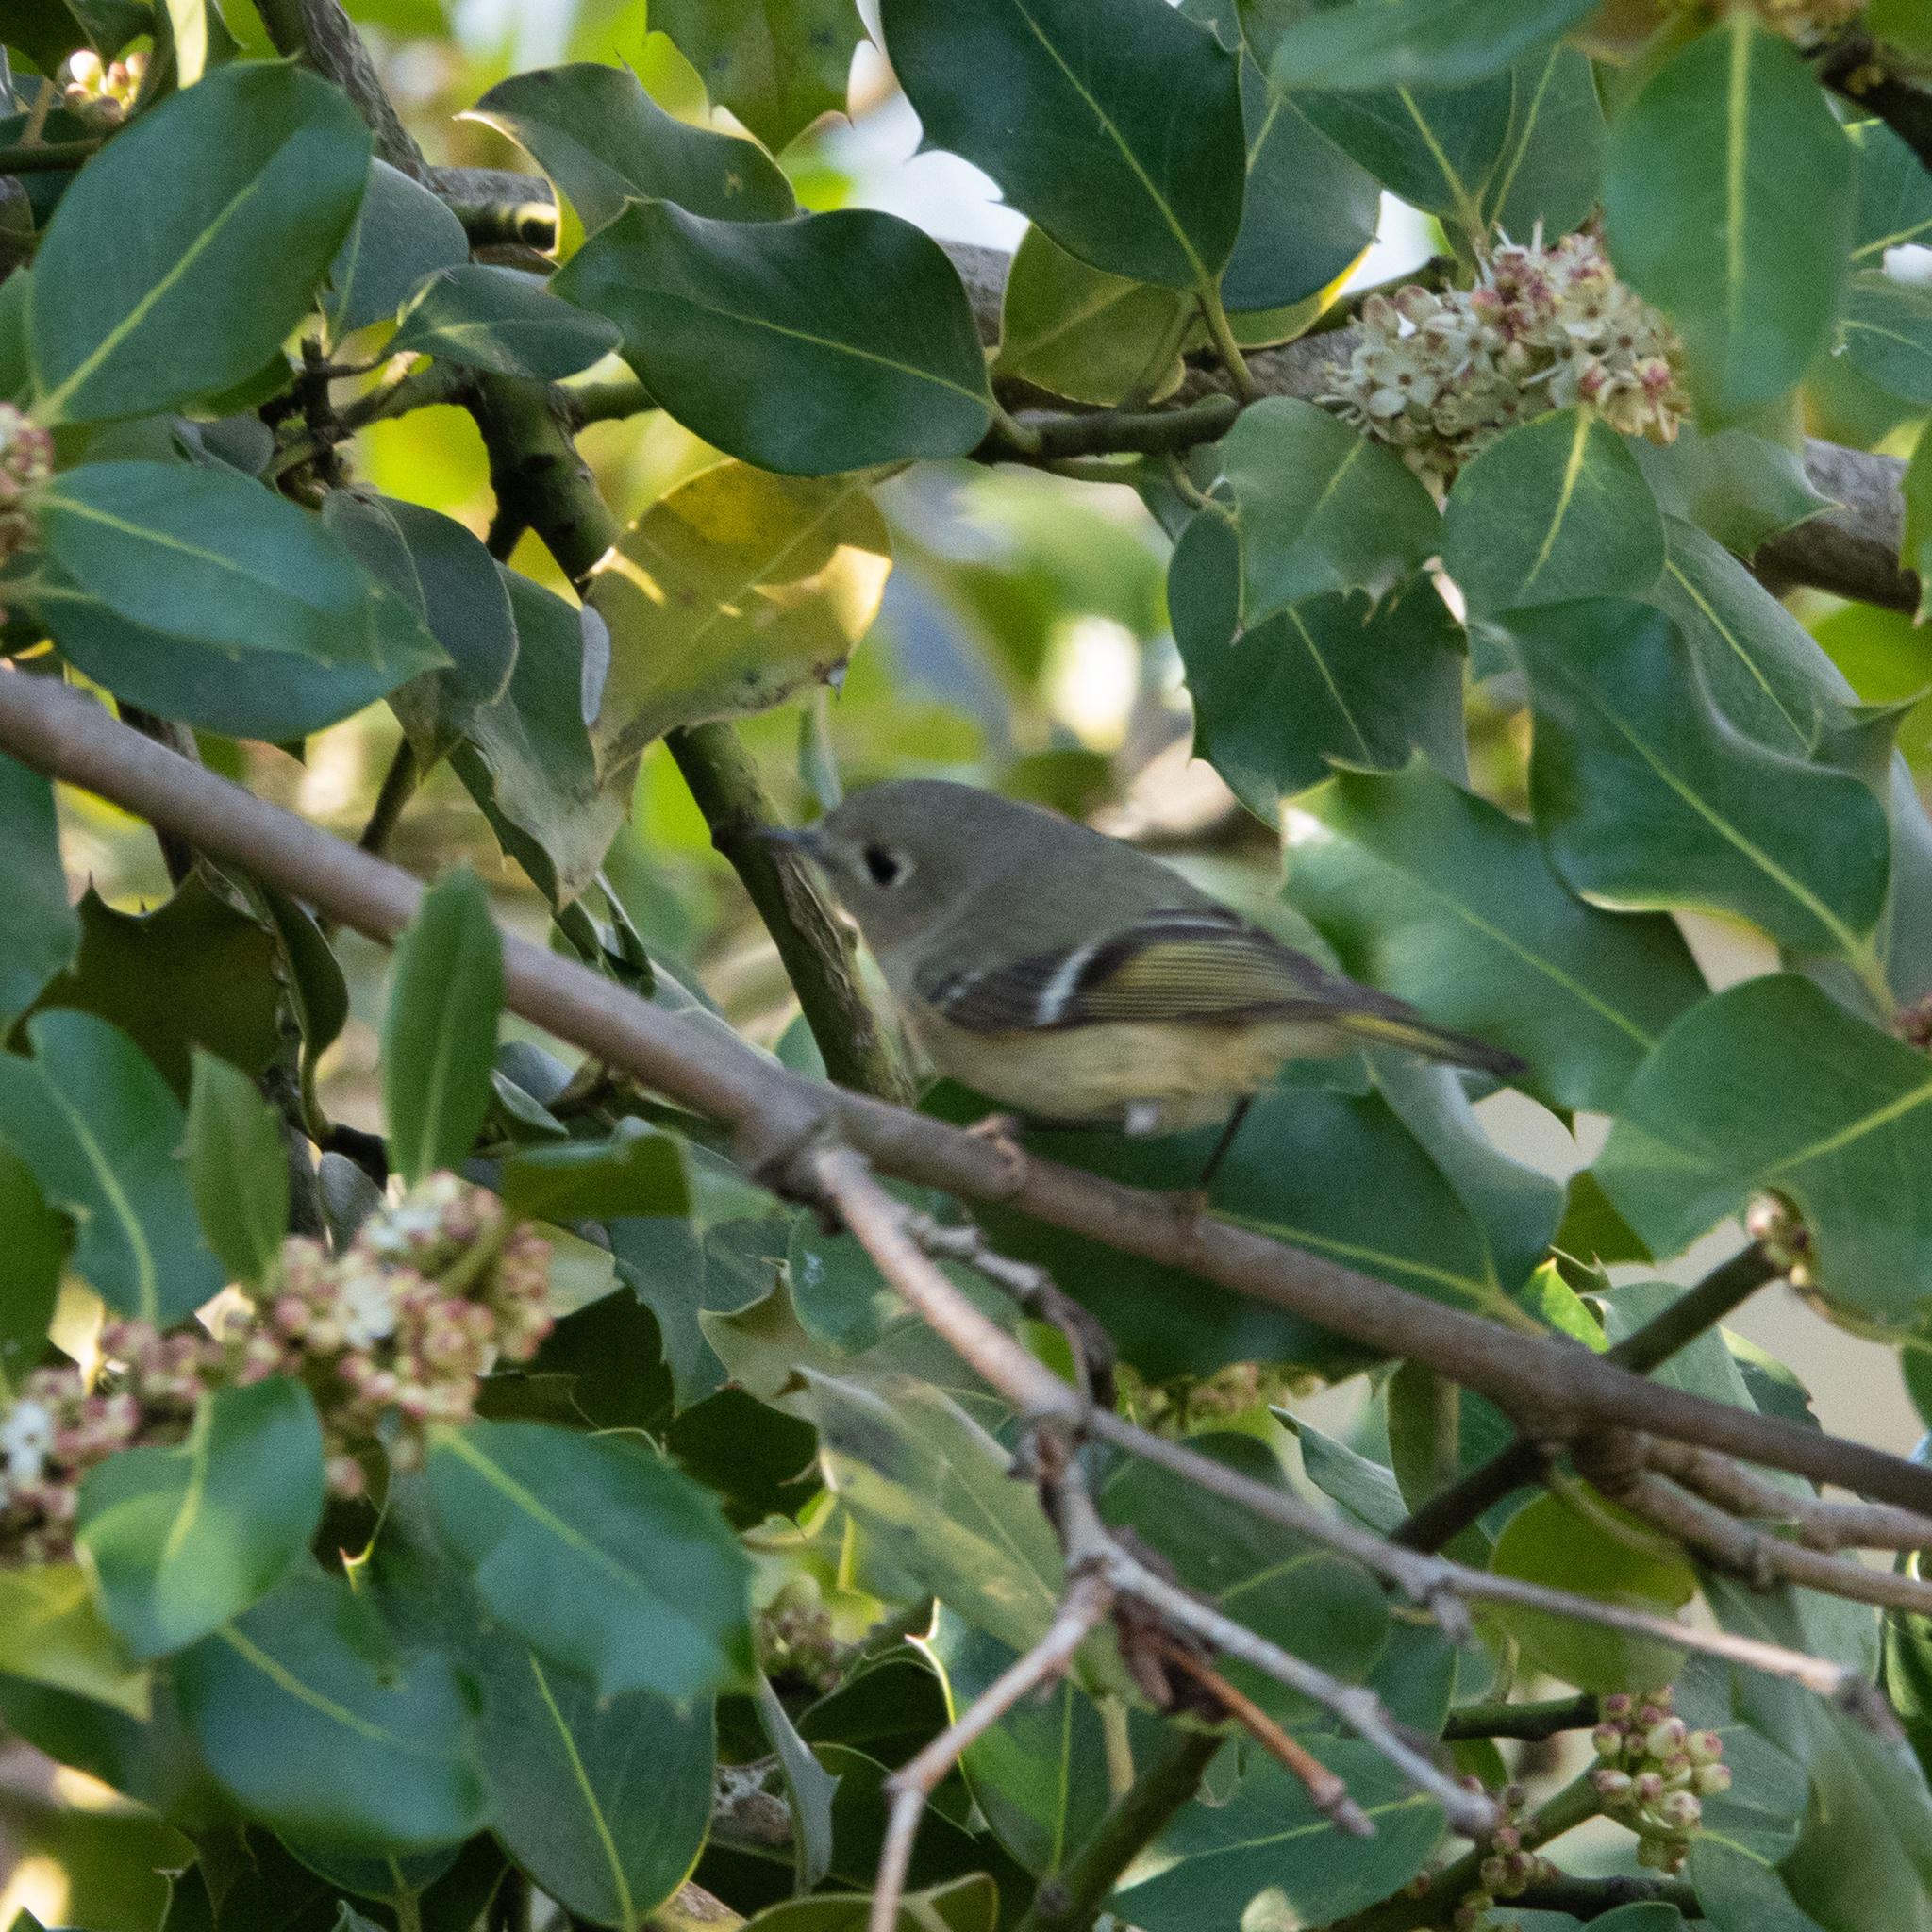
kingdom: Animalia
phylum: Chordata
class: Aves
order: Passeriformes
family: Regulidae
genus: Regulus
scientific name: Regulus calendula
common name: Ruby-crowned kinglet
